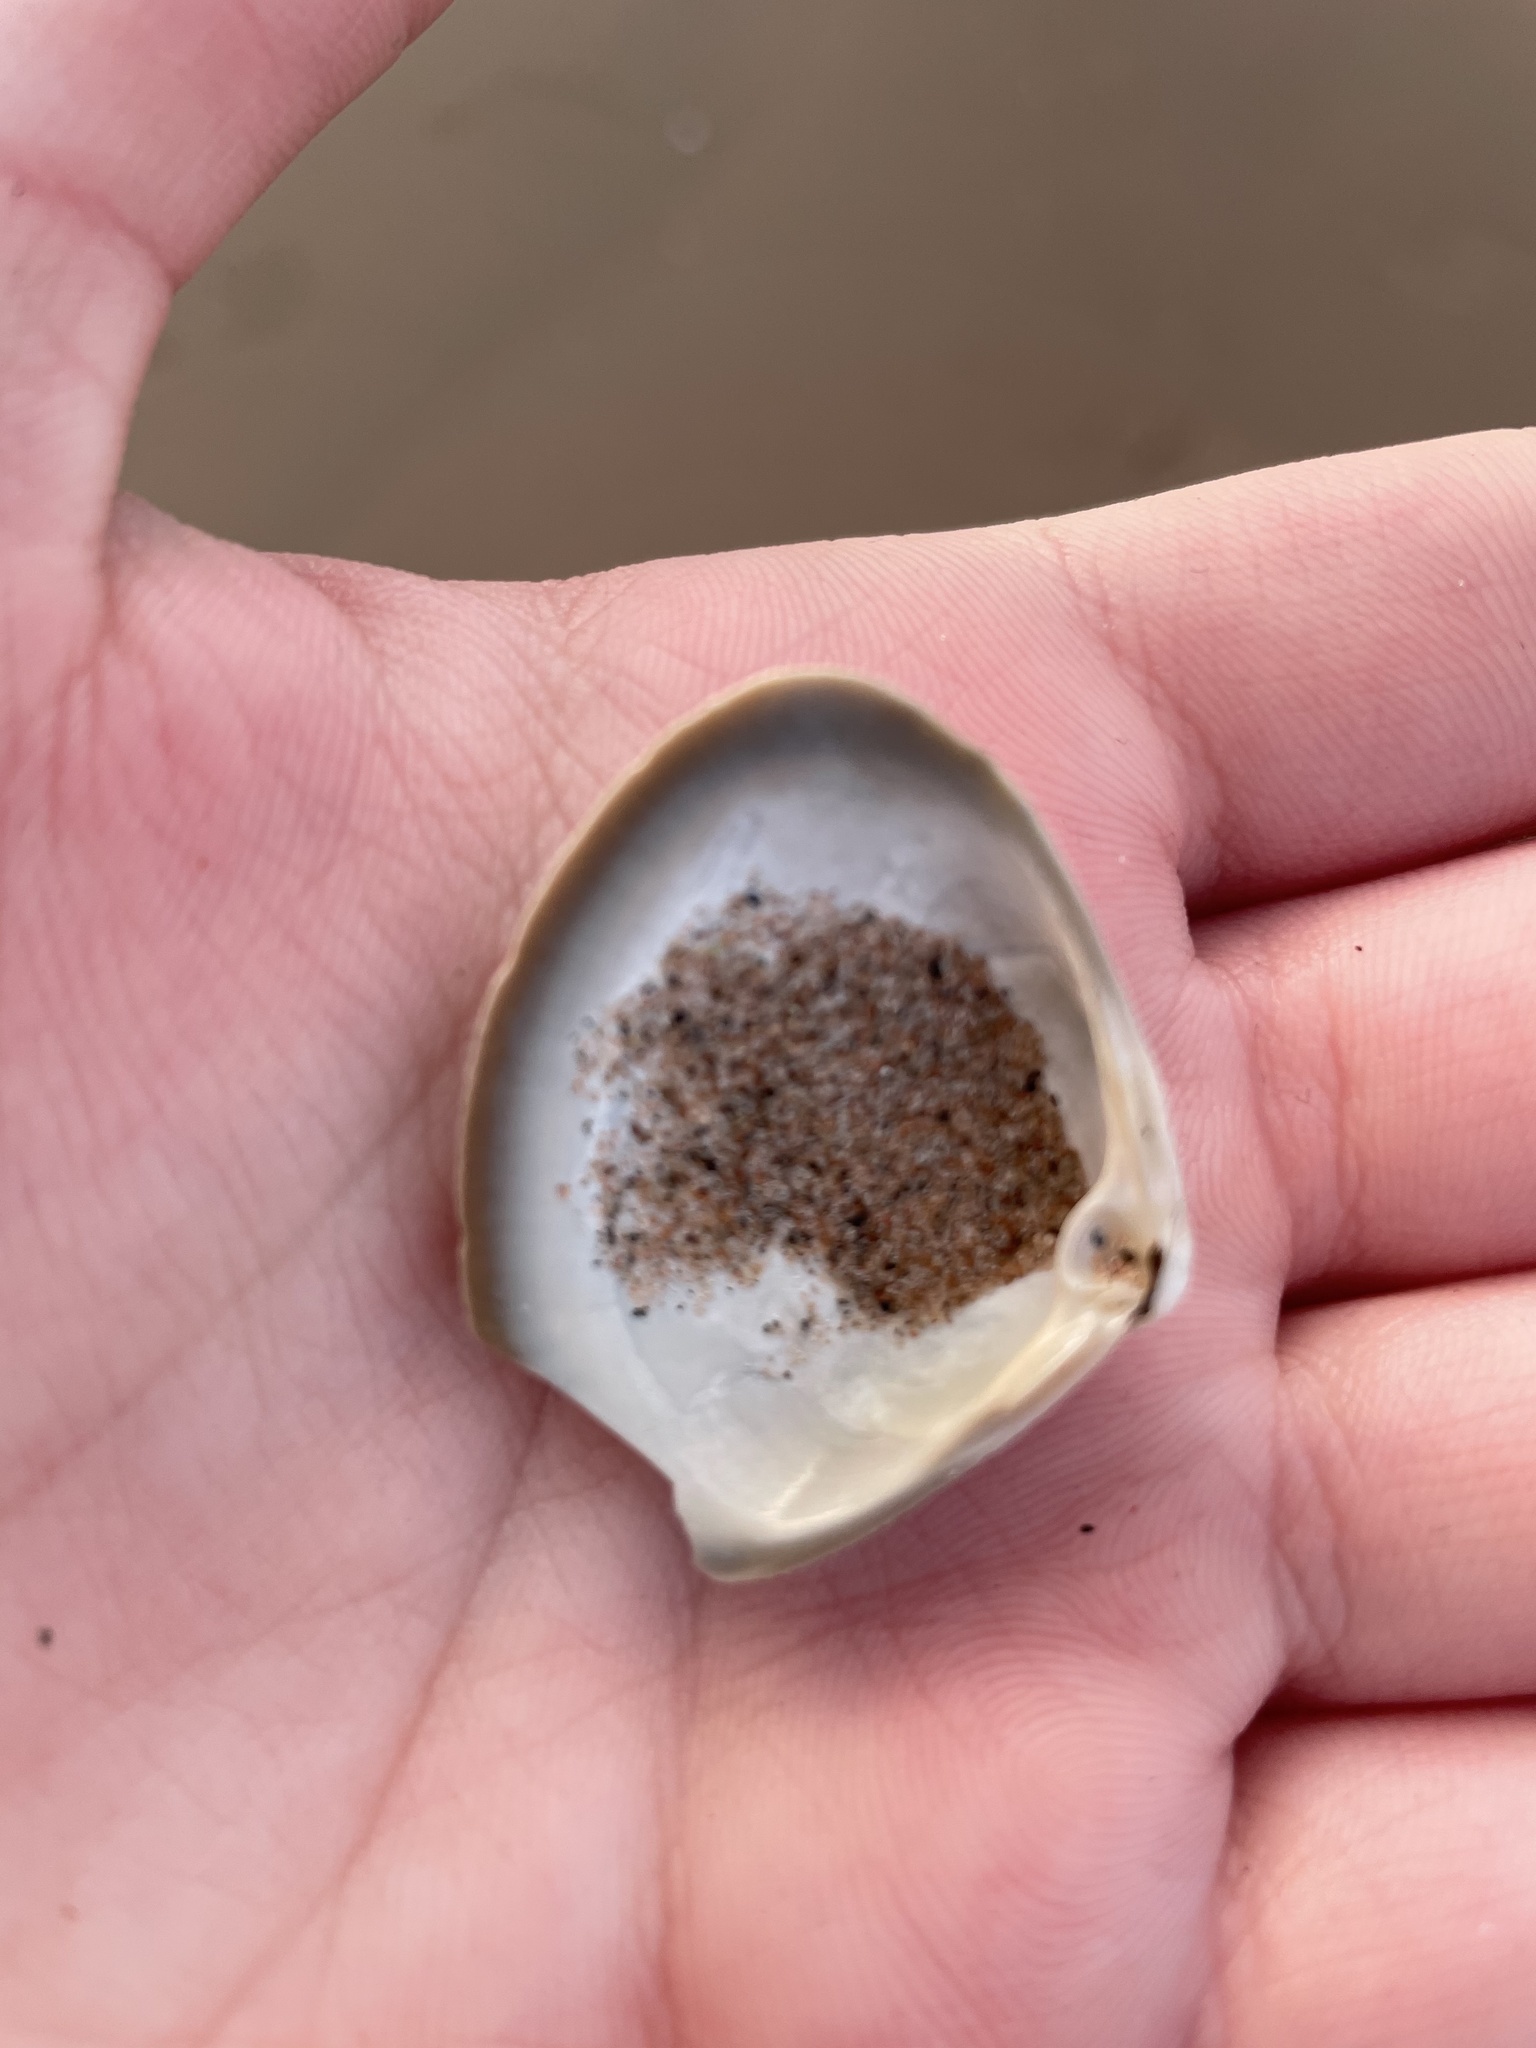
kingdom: Animalia
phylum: Mollusca
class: Bivalvia
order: Venerida
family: Mactridae
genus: Spisula
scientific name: Spisula solidissima
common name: Atlantic surf clam
